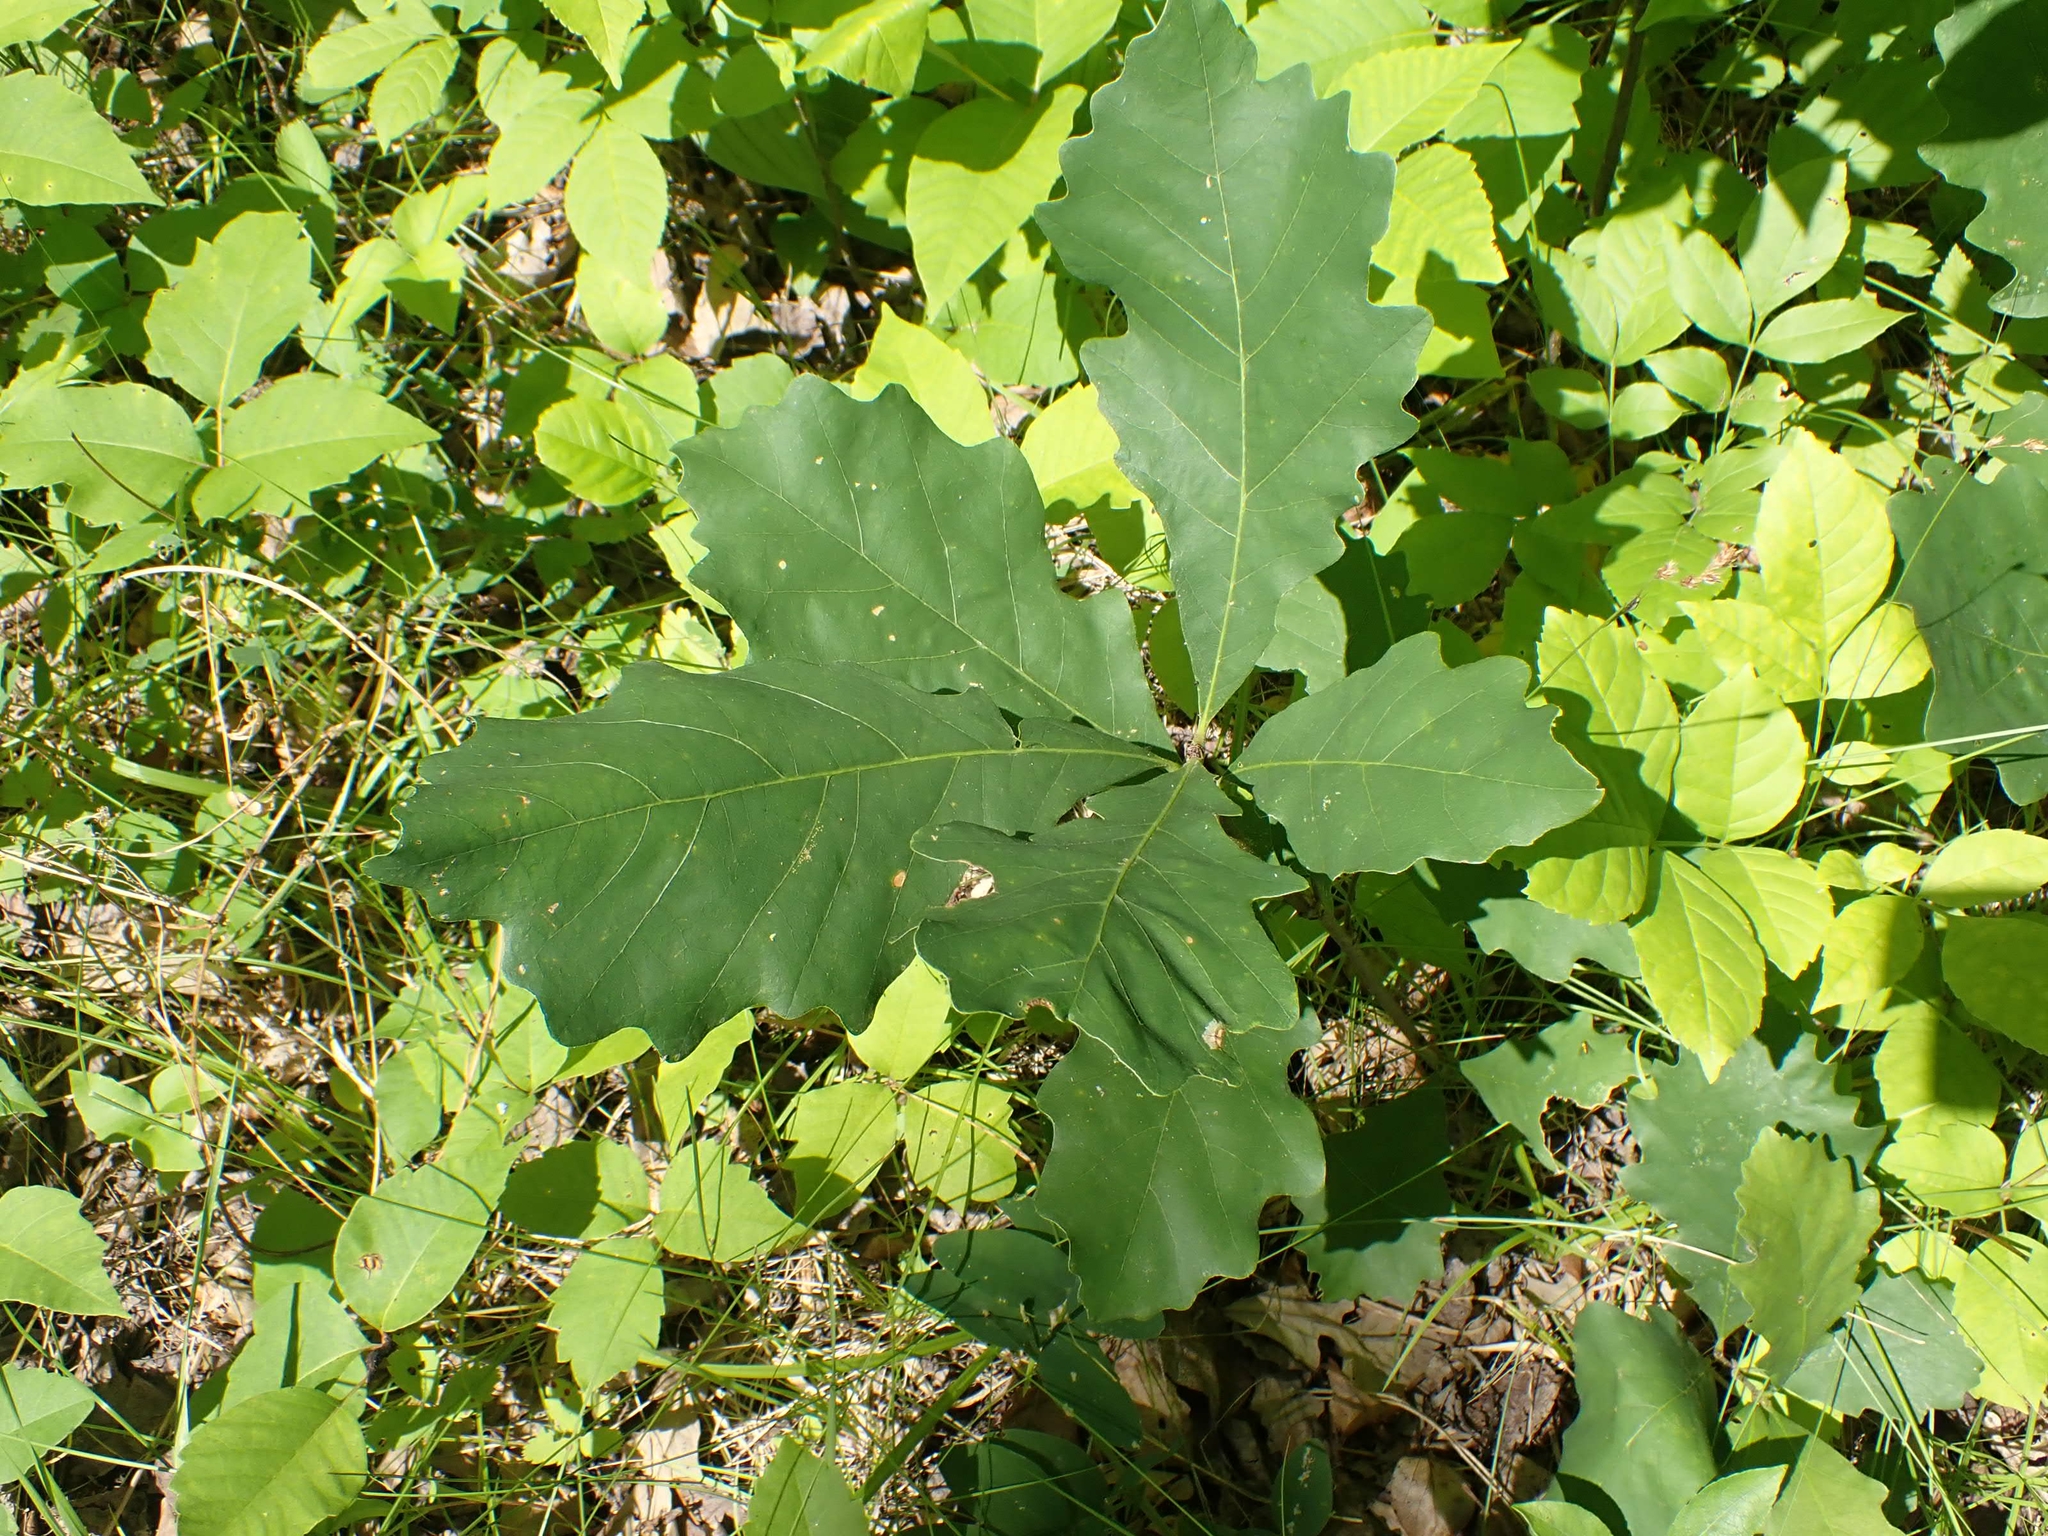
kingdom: Plantae
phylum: Tracheophyta
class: Magnoliopsida
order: Fagales
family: Fagaceae
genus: Quercus
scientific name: Quercus macrocarpa
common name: Bur oak
